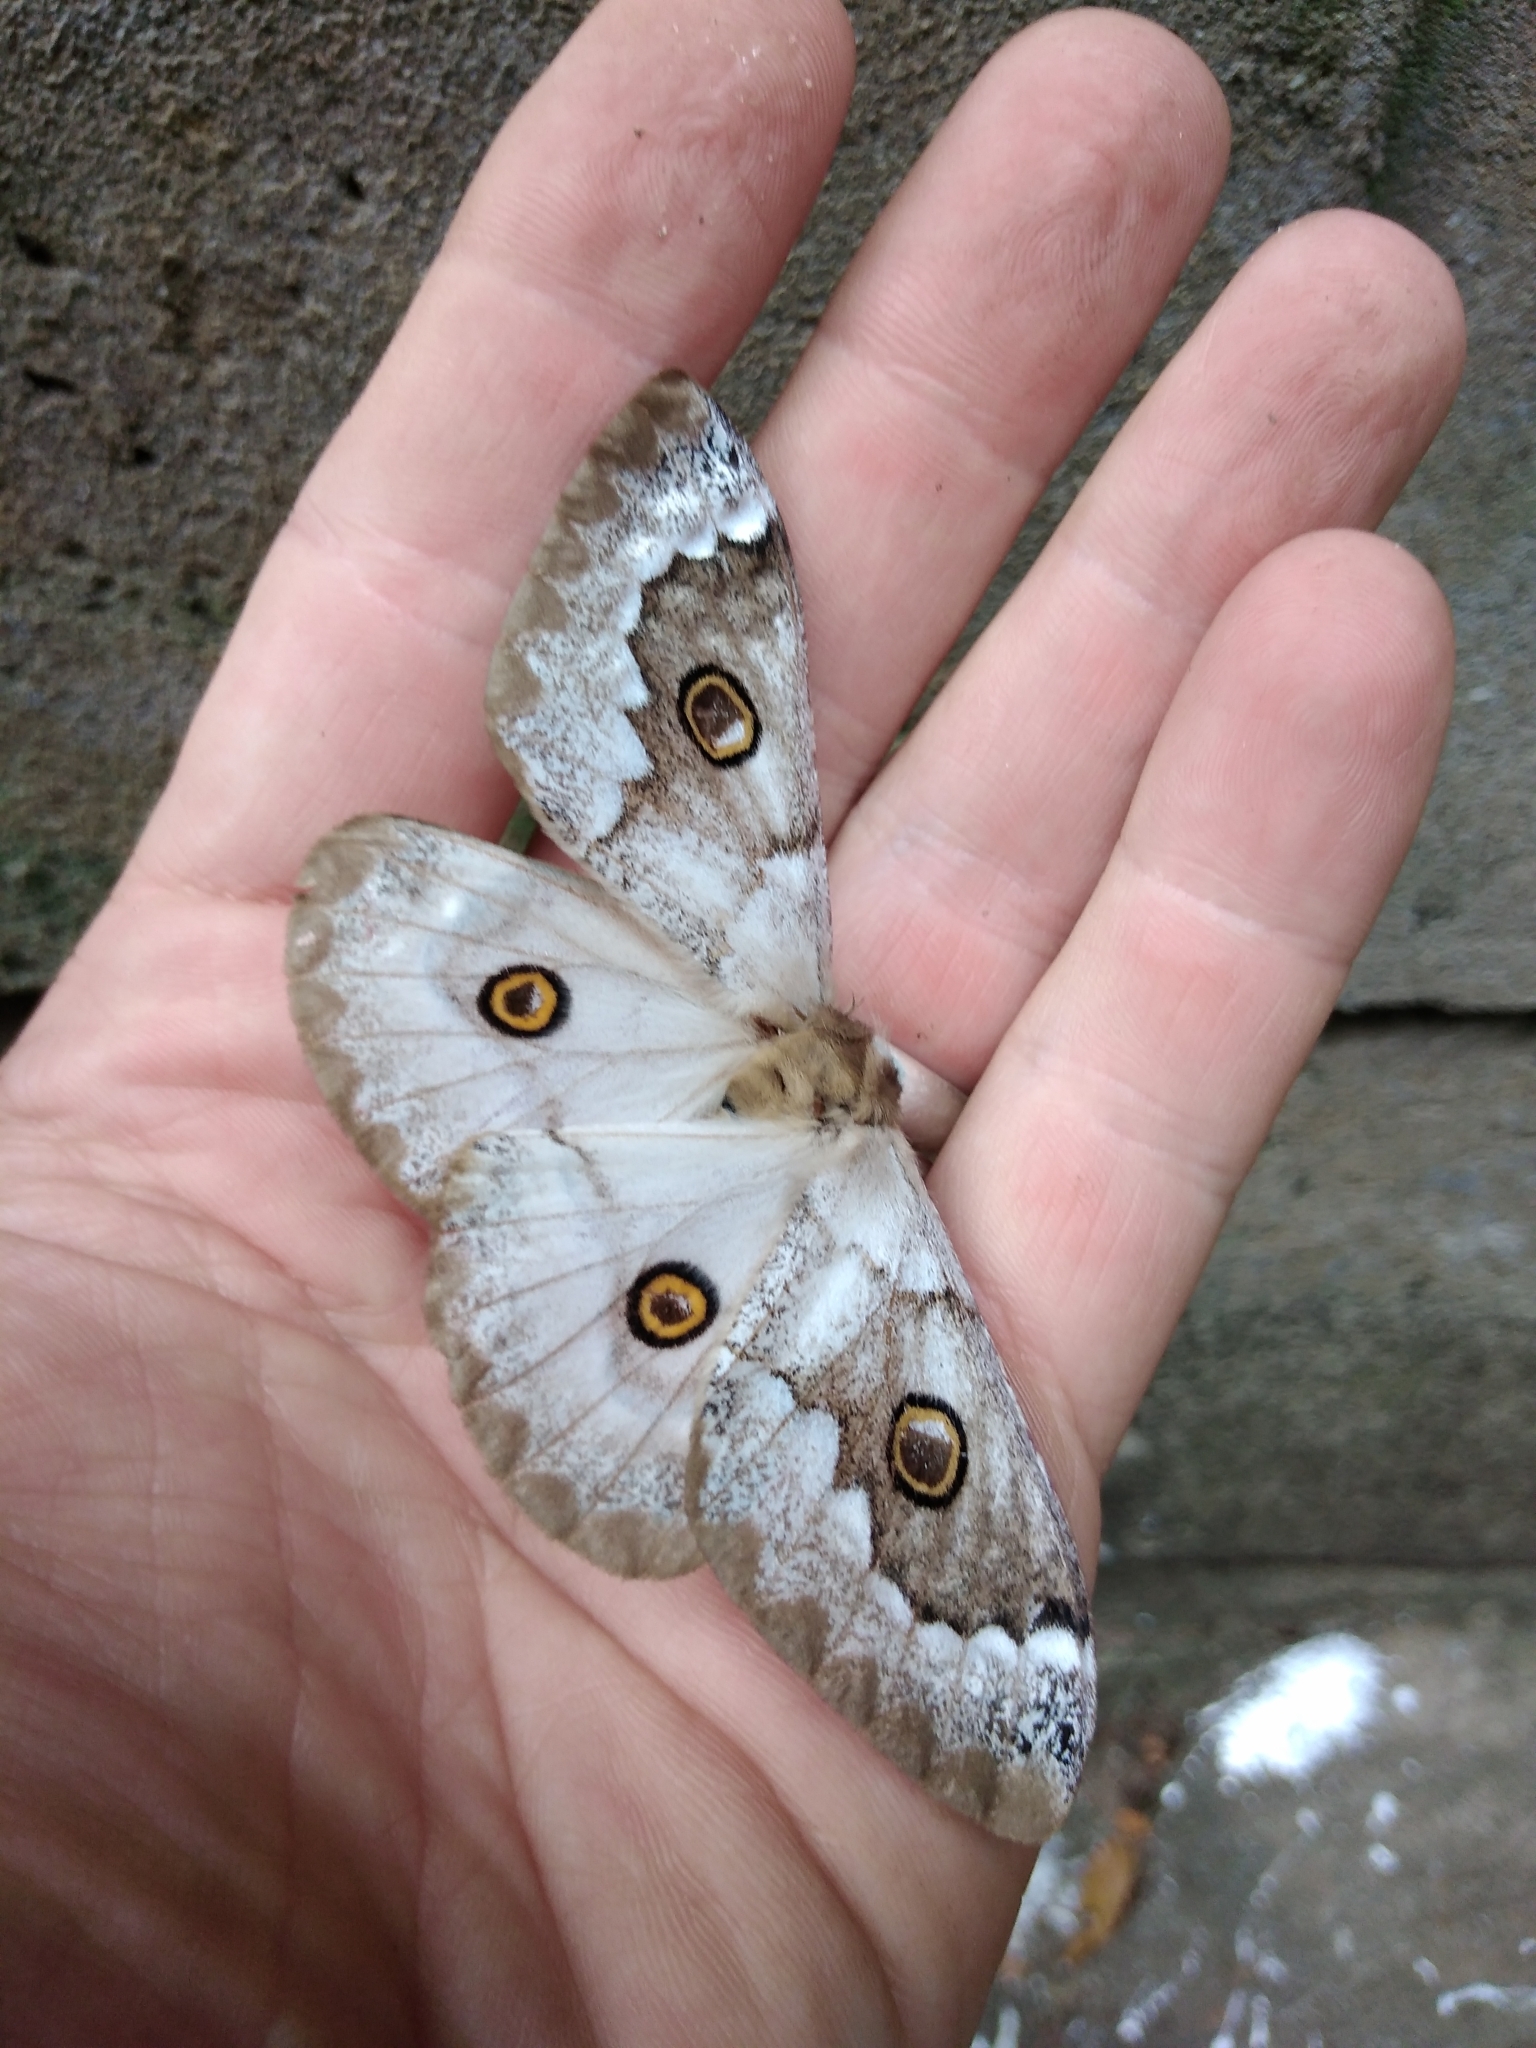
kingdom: Animalia
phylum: Arthropoda
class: Insecta
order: Lepidoptera
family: Saturniidae
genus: Usta
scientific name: Usta terpsichore
